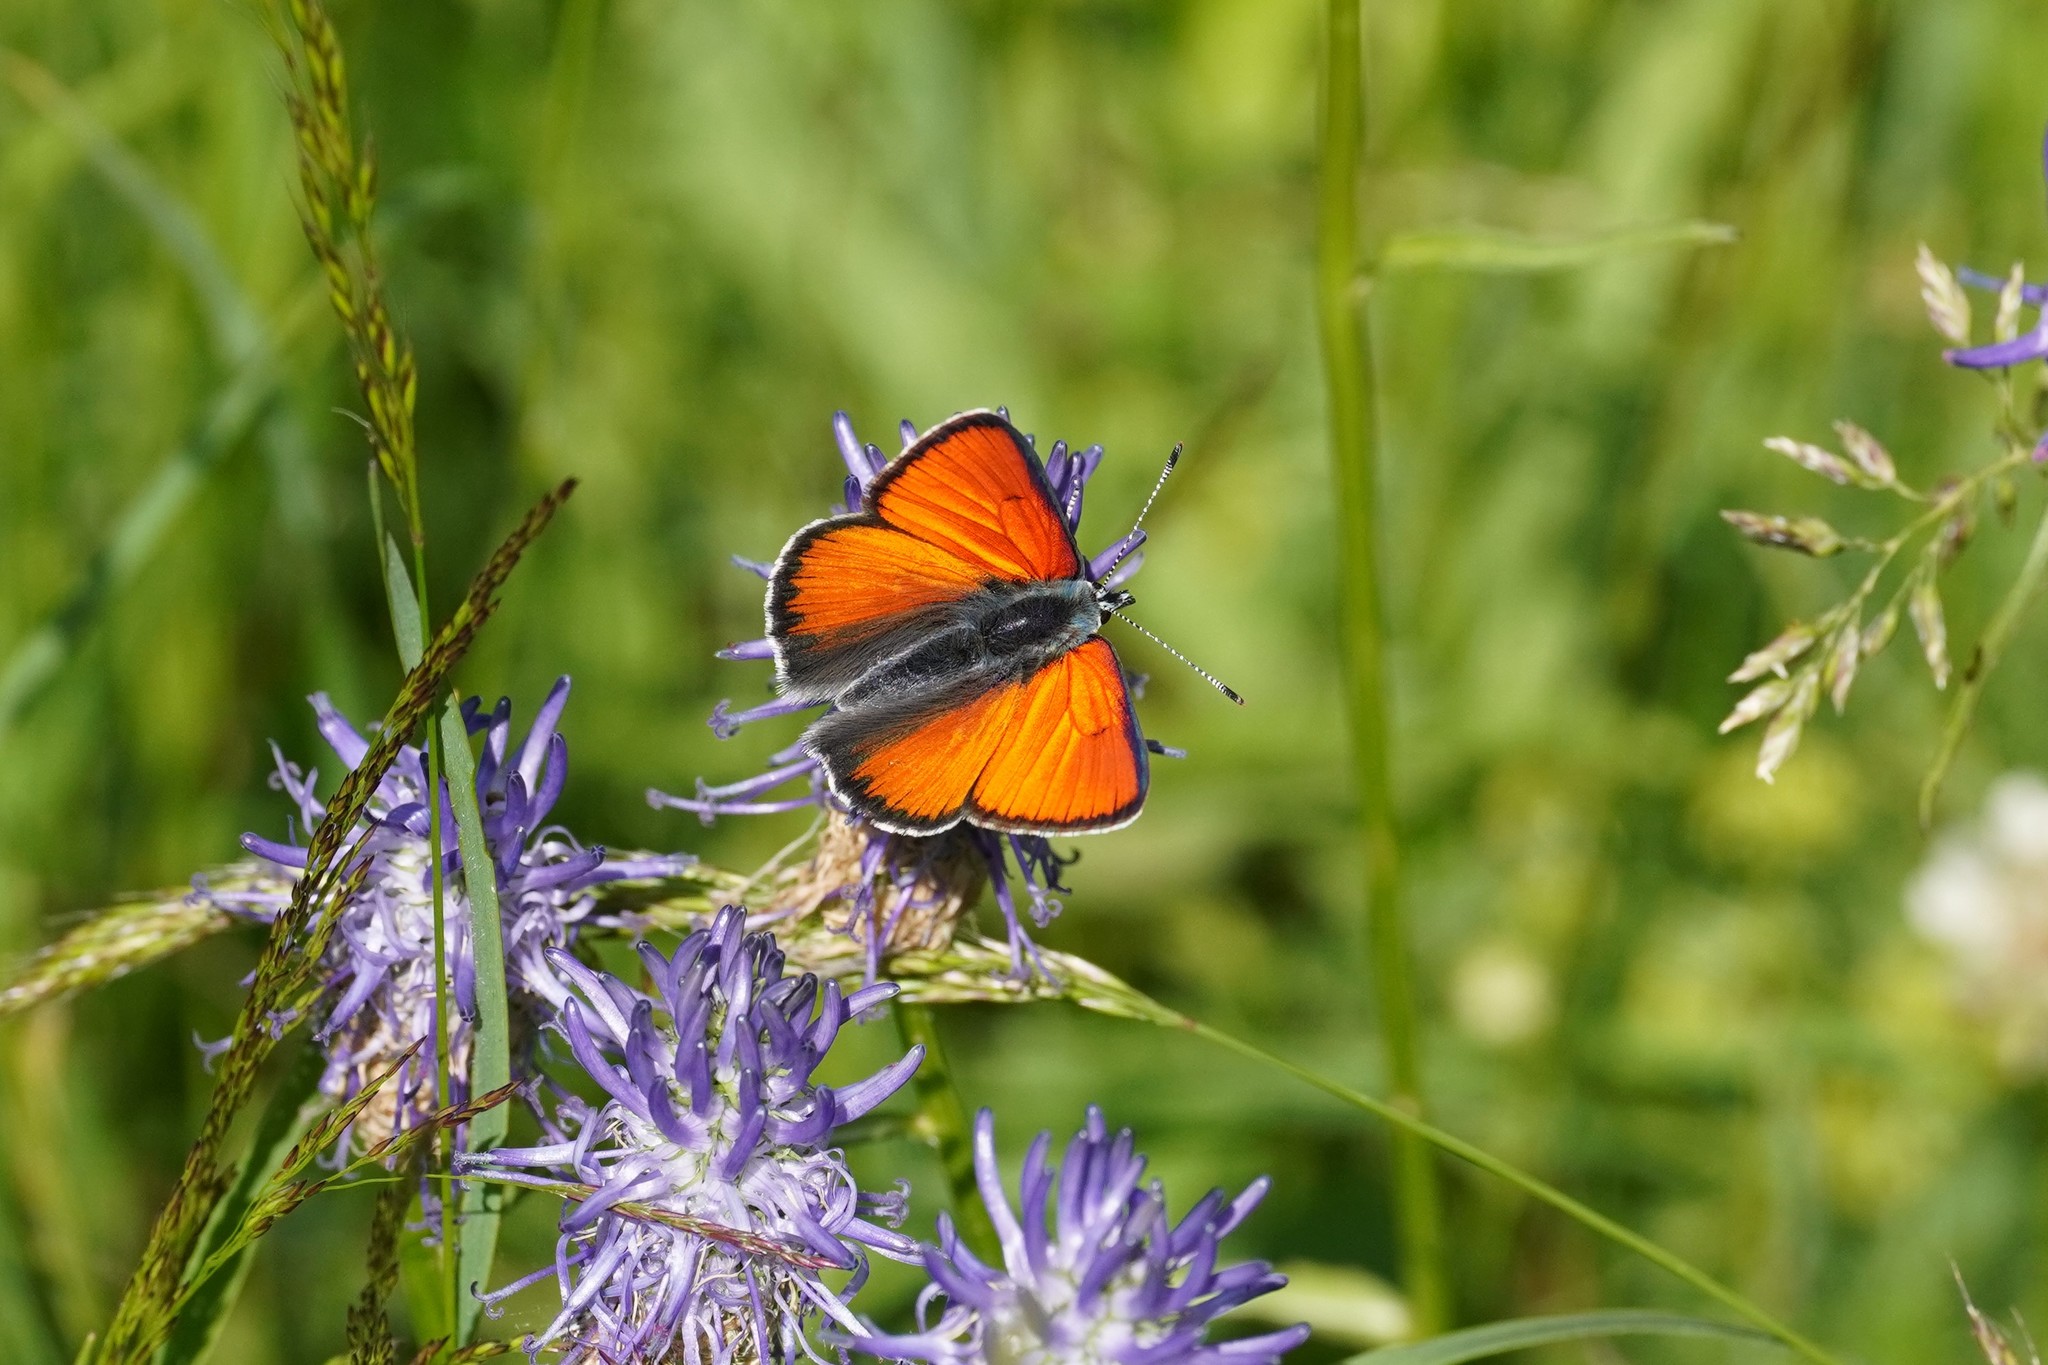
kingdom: Animalia
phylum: Arthropoda
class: Insecta
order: Lepidoptera
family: Lycaenidae
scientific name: Lycaenidae
